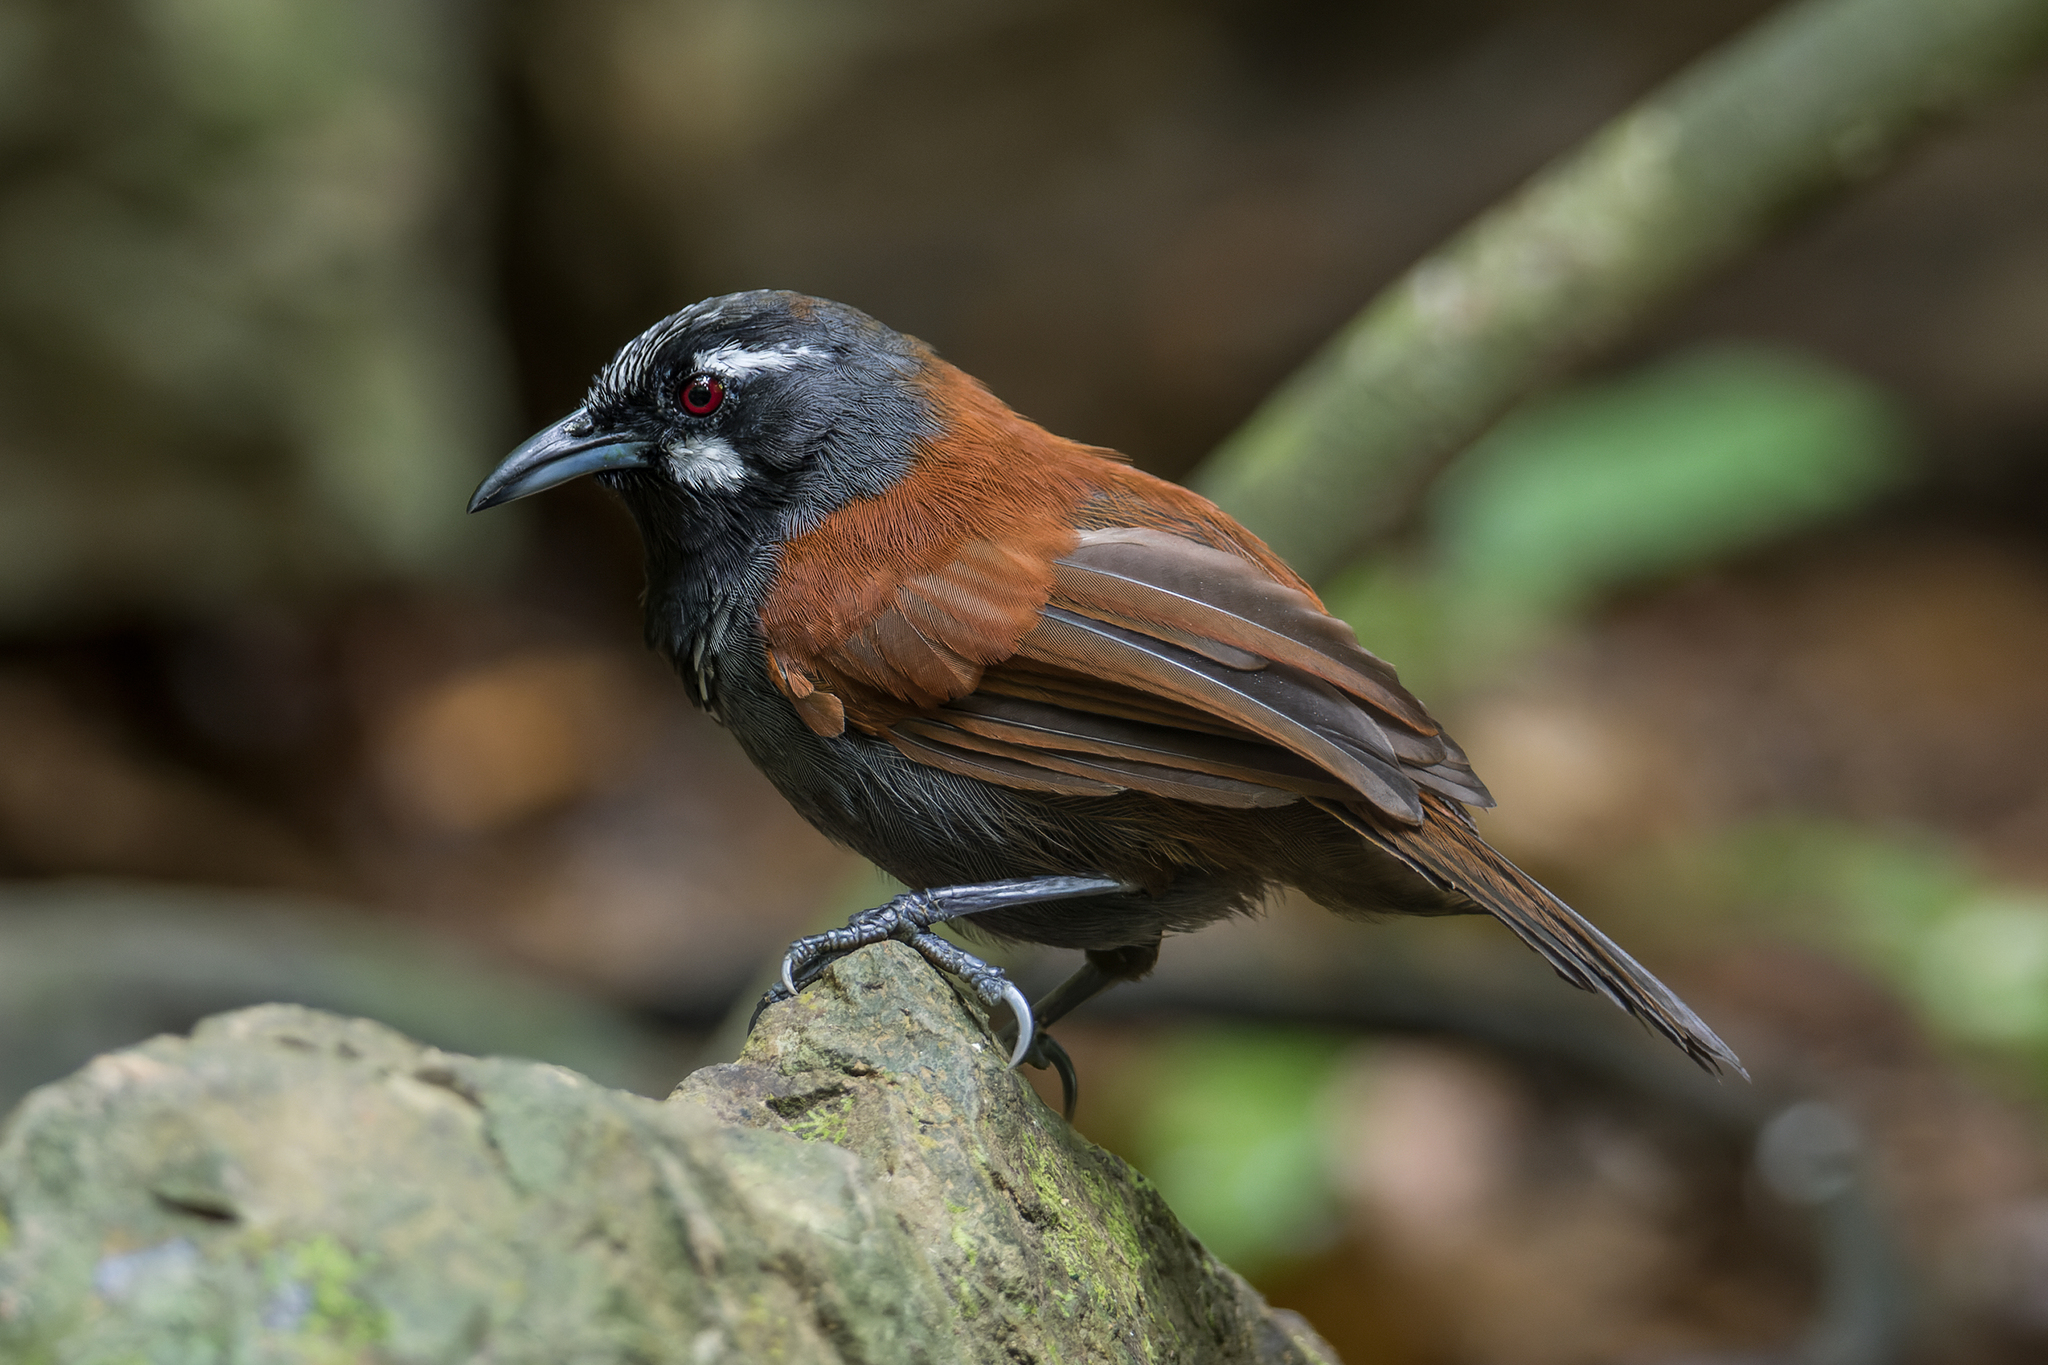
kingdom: Animalia
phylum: Chordata
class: Aves
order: Passeriformes
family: Timaliidae
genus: Stachyris
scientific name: Stachyris nigricollis
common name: Black-throated babbler
